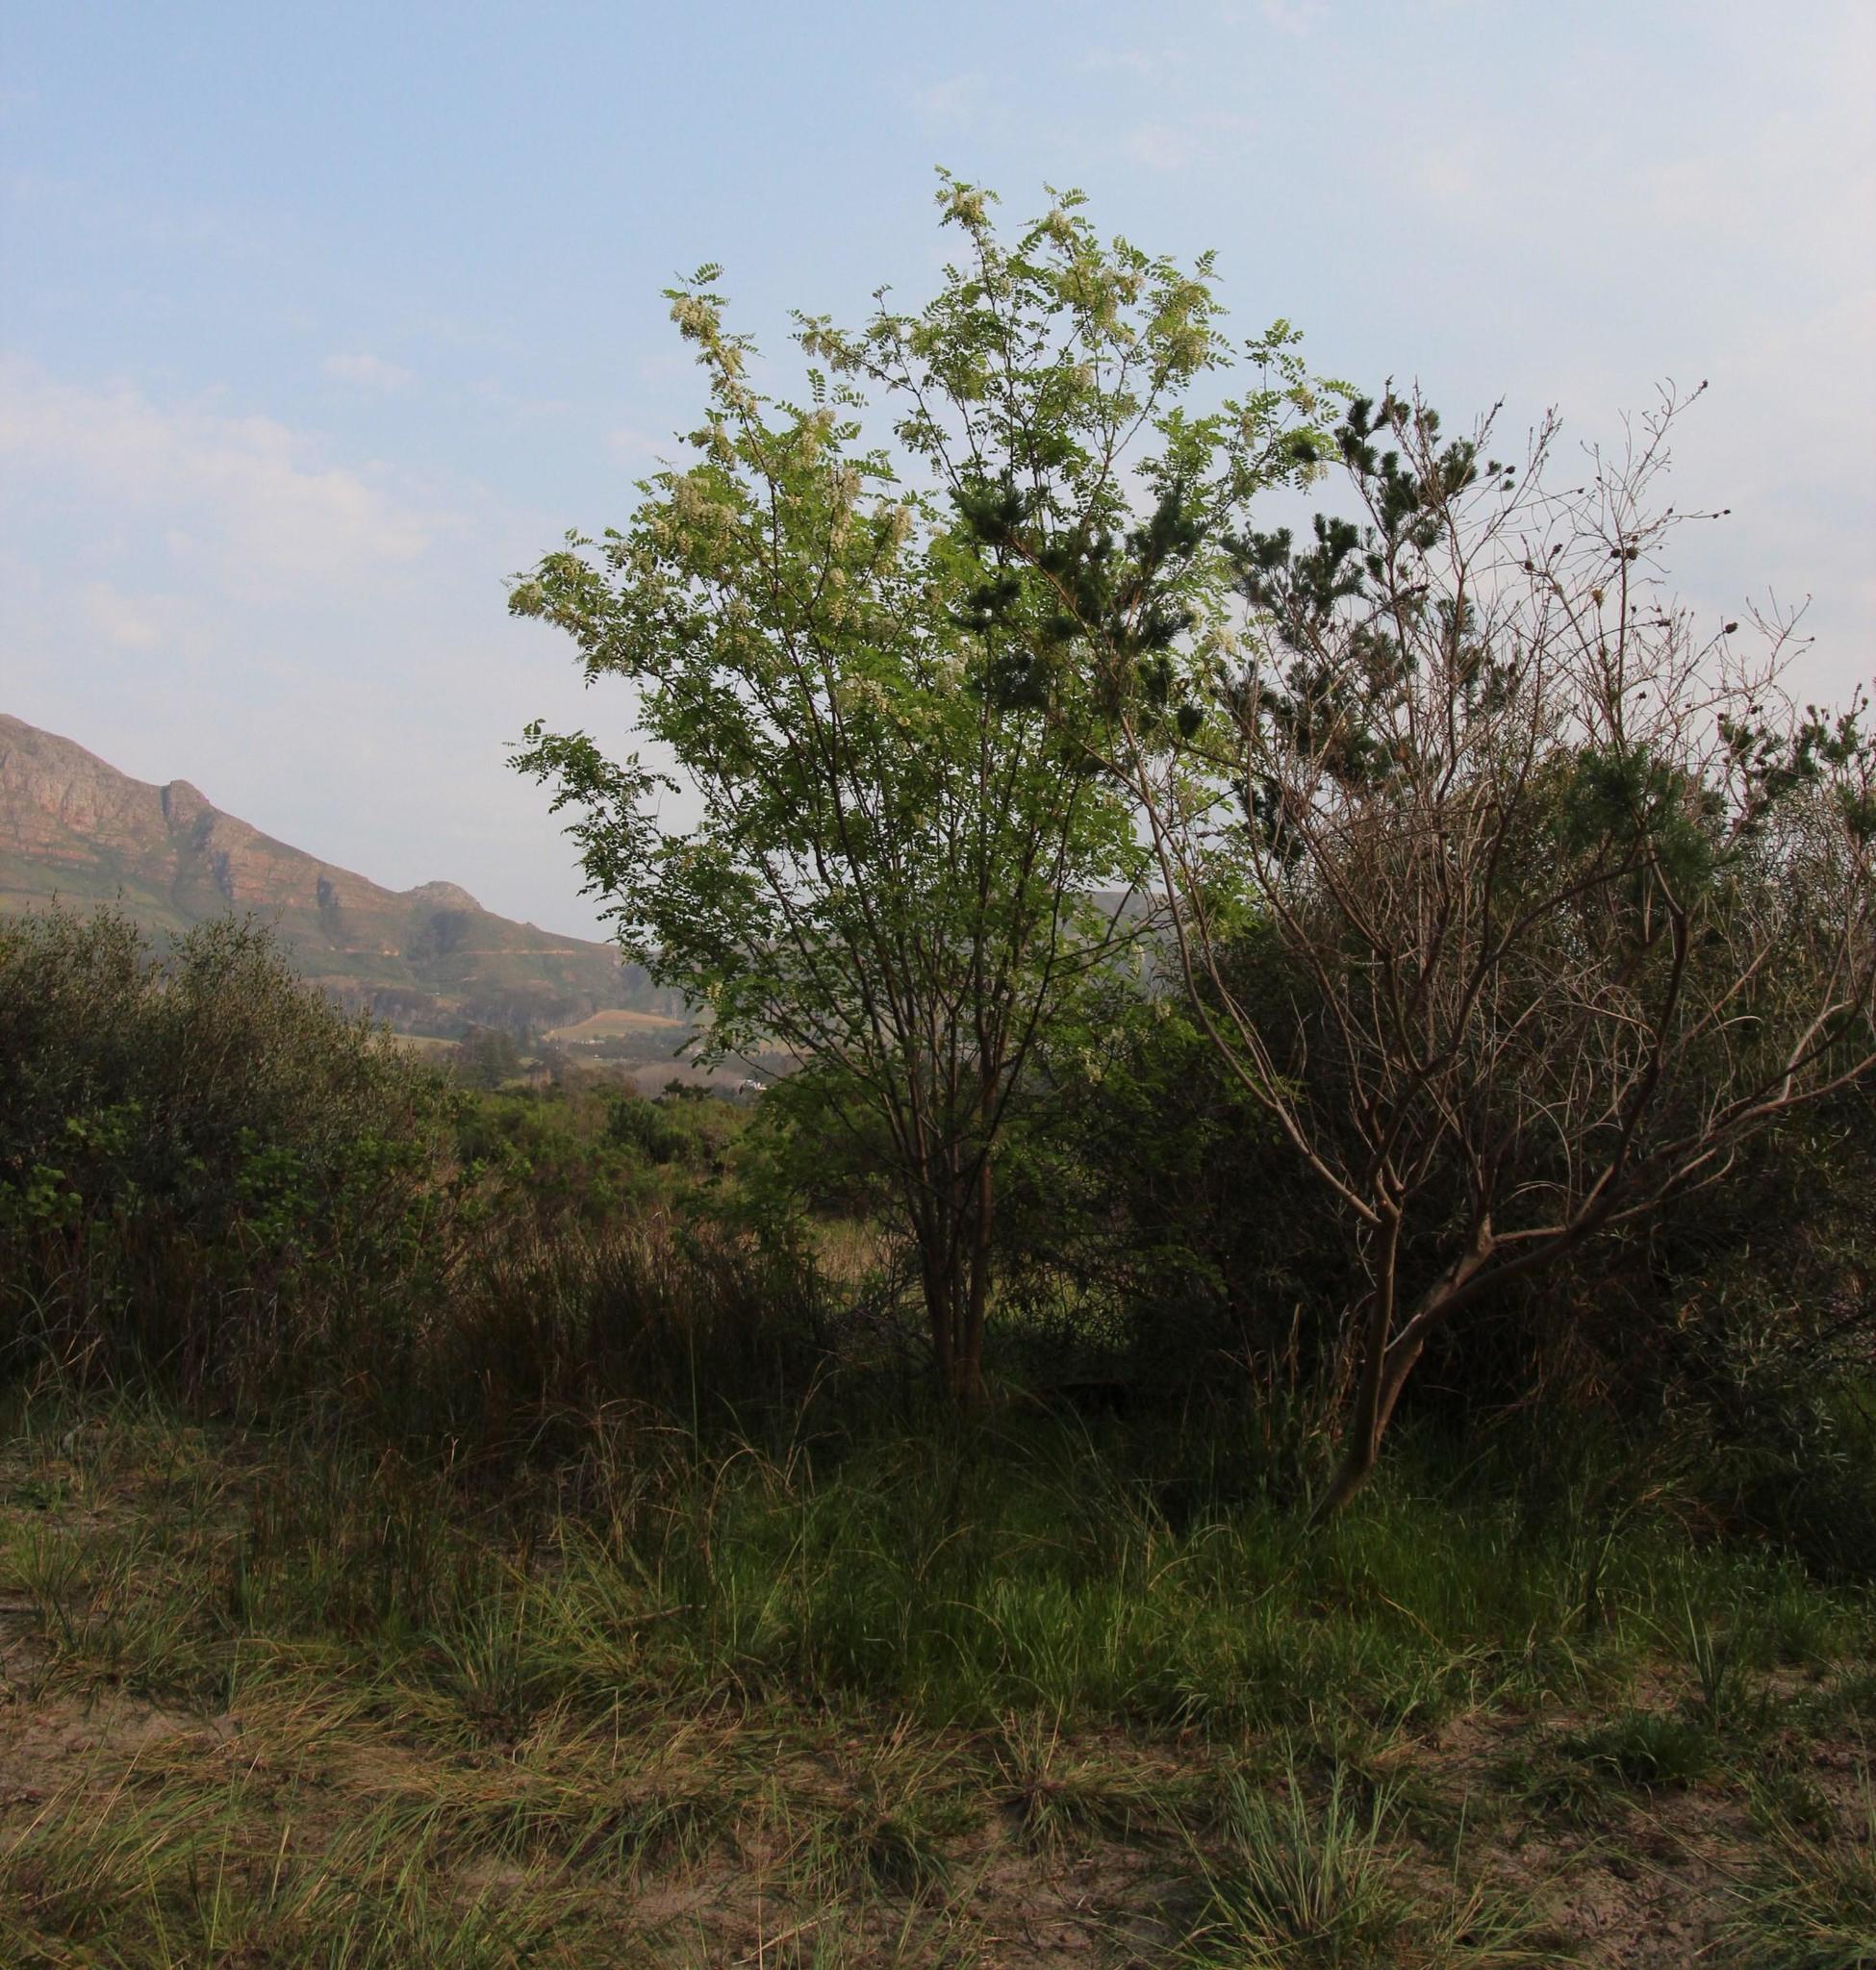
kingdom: Plantae
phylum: Tracheophyta
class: Magnoliopsida
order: Fabales
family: Fabaceae
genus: Robinia
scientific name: Robinia pseudoacacia
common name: Black locust
